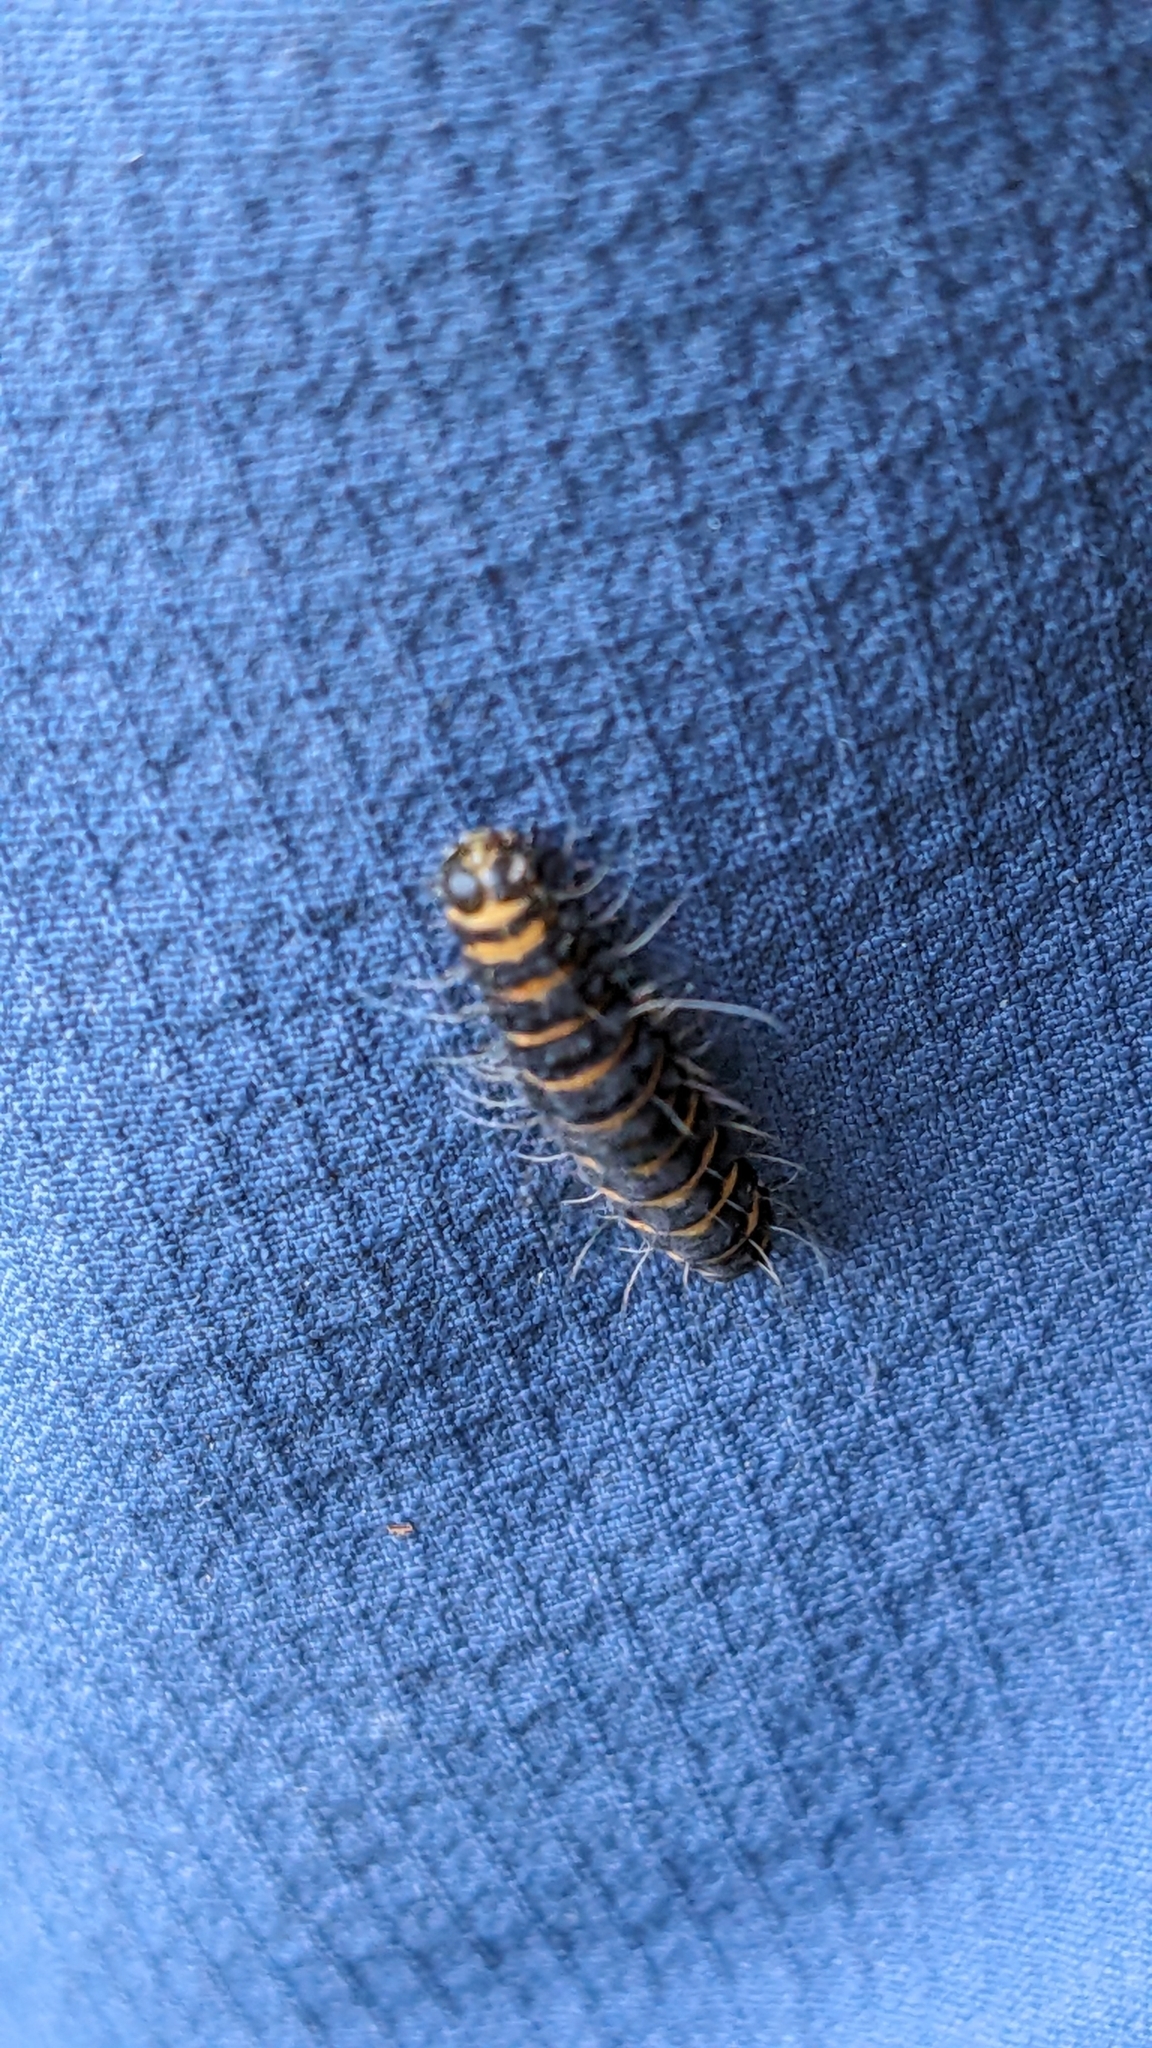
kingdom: Animalia
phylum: Arthropoda
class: Insecta
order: Lepidoptera
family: Erebidae
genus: Tyria
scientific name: Tyria jacobaeae
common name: Cinnabar
